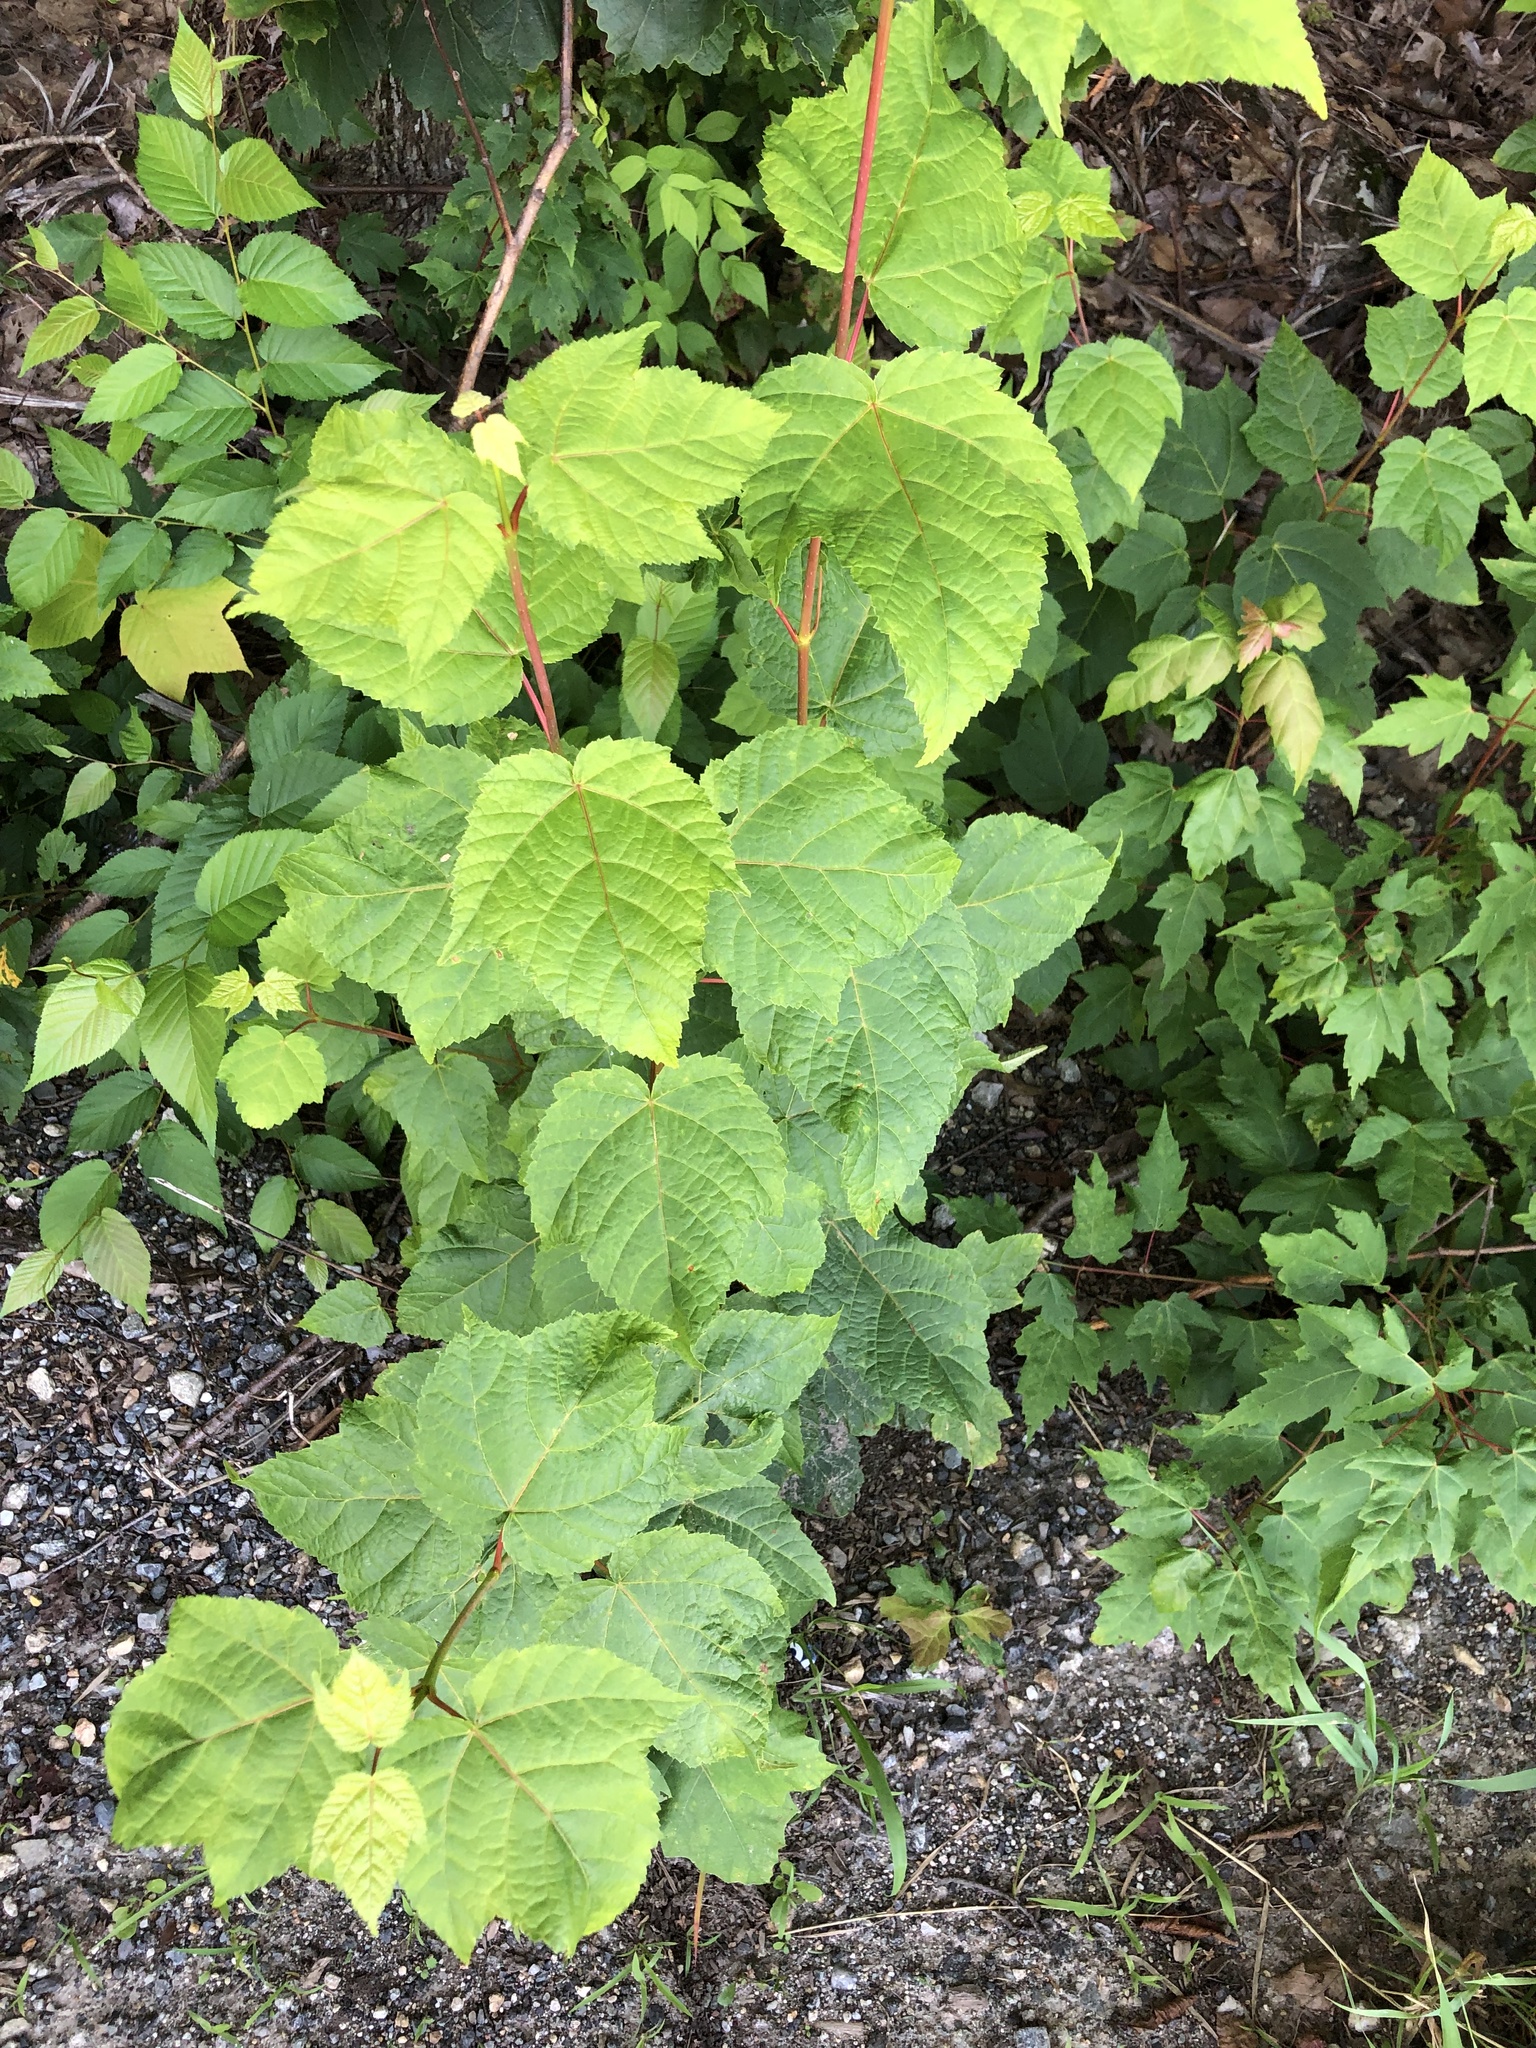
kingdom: Plantae
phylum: Tracheophyta
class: Magnoliopsida
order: Sapindales
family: Sapindaceae
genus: Acer
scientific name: Acer pensylvanicum
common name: Moosewood
